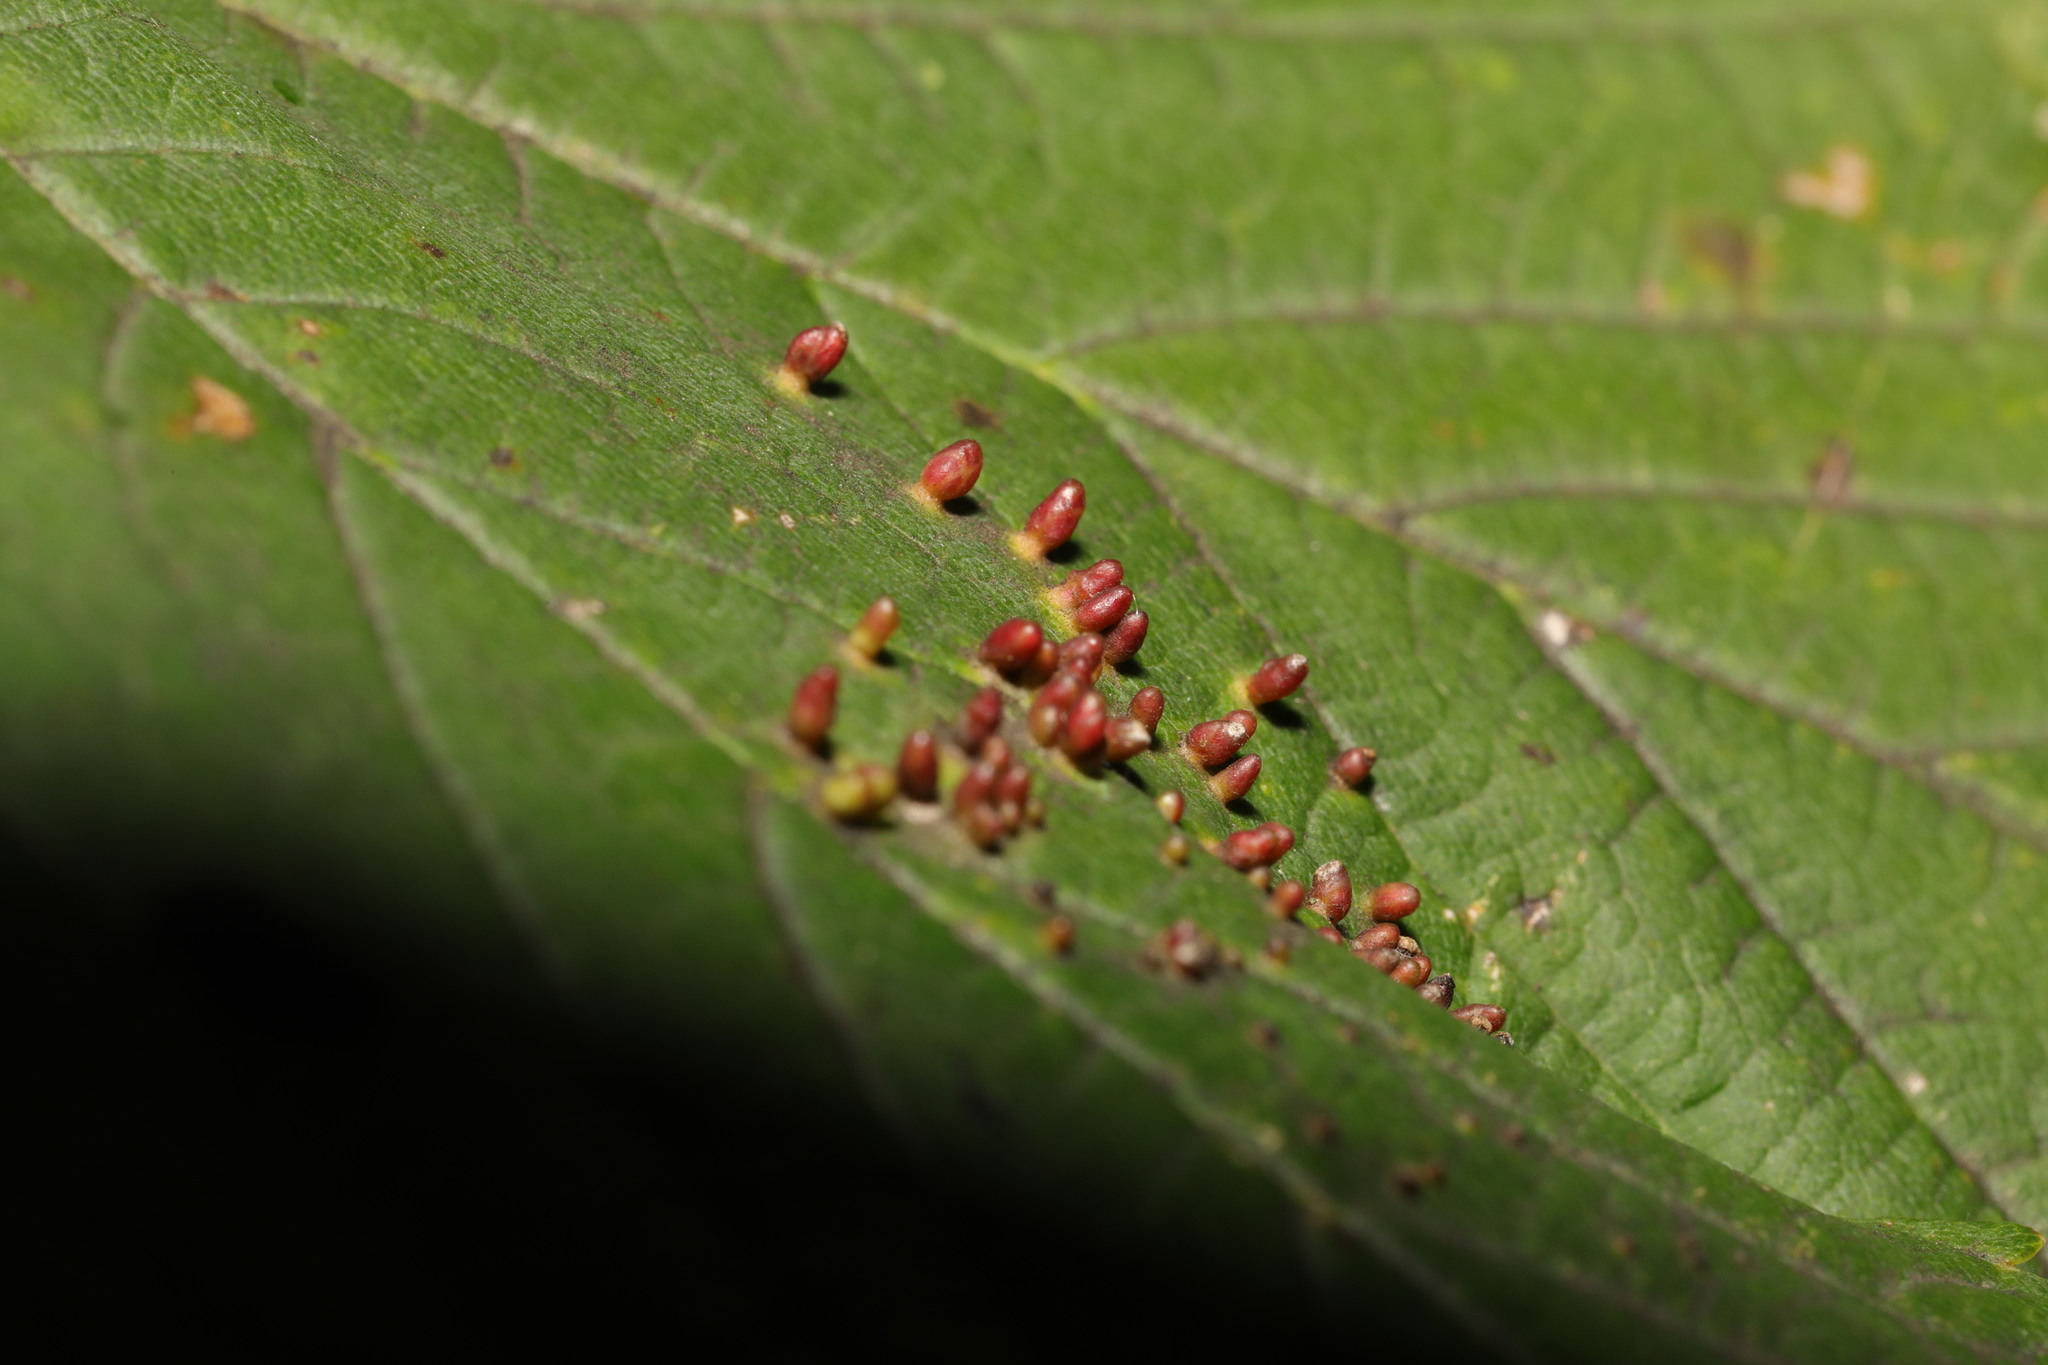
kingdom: Animalia
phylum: Arthropoda
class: Arachnida
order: Trombidiformes
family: Eriophyidae
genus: Aceria
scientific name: Aceria cephaloneus
